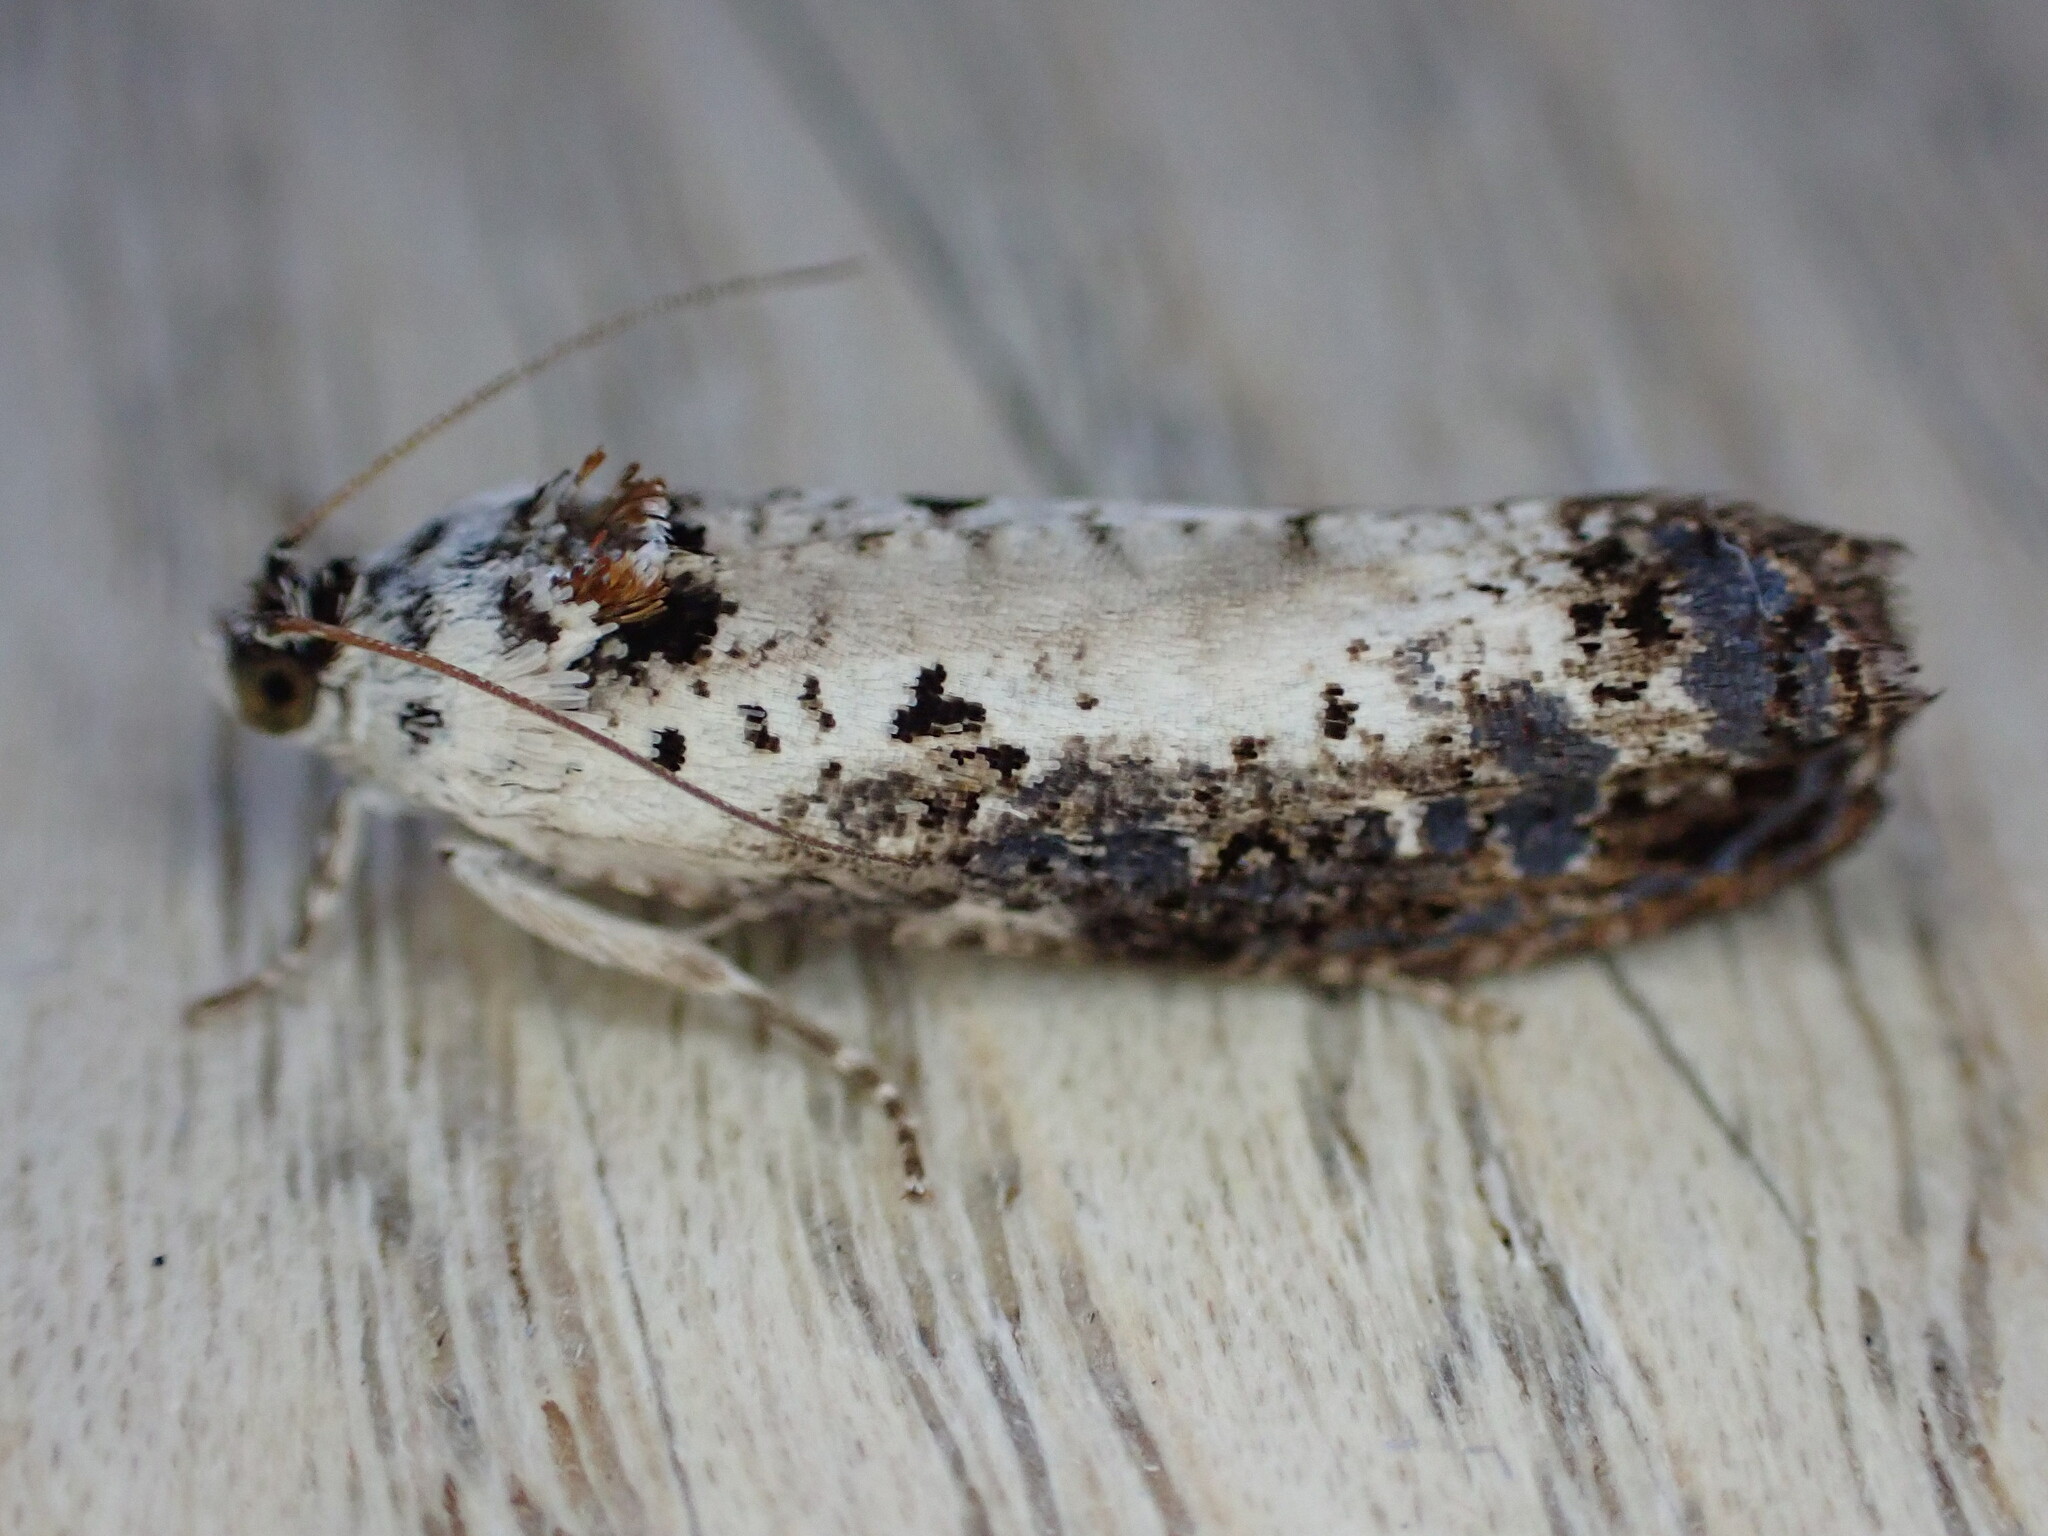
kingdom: Animalia
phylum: Arthropoda
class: Insecta
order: Lepidoptera
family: Tortricidae
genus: Hedya
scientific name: Hedya salicella
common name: Large tortricid moth
